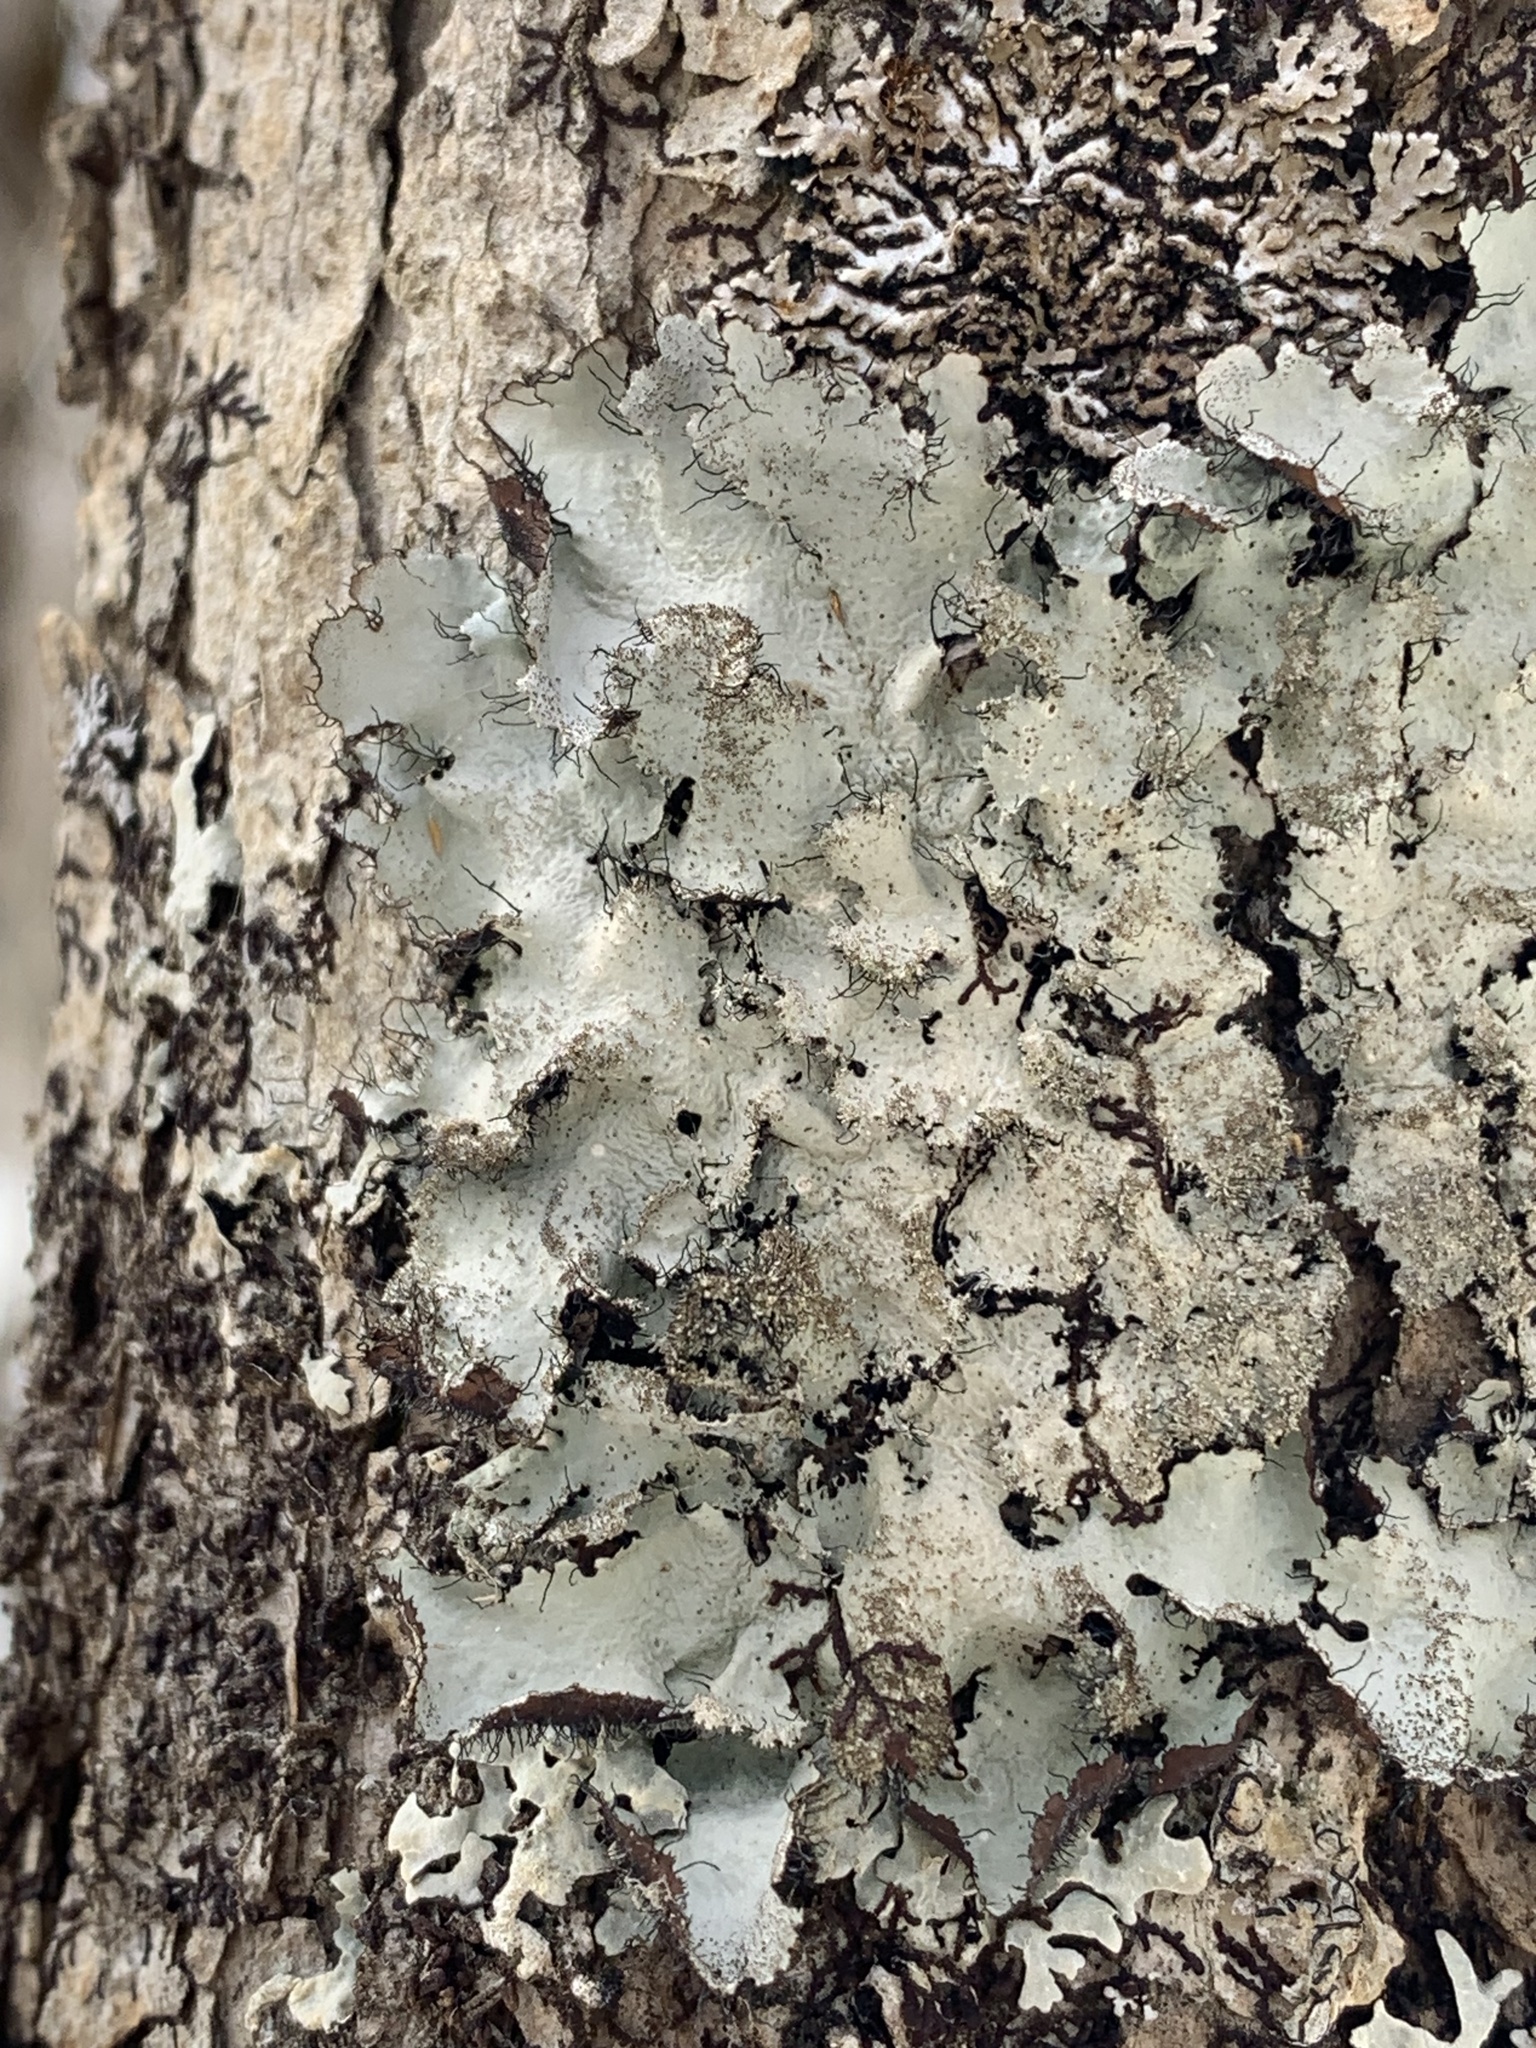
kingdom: Fungi
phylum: Ascomycota
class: Lecanoromycetes
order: Lecanorales
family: Parmeliaceae
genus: Parmotrema
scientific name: Parmotrema crinitum
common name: Salted ruffle lichen
